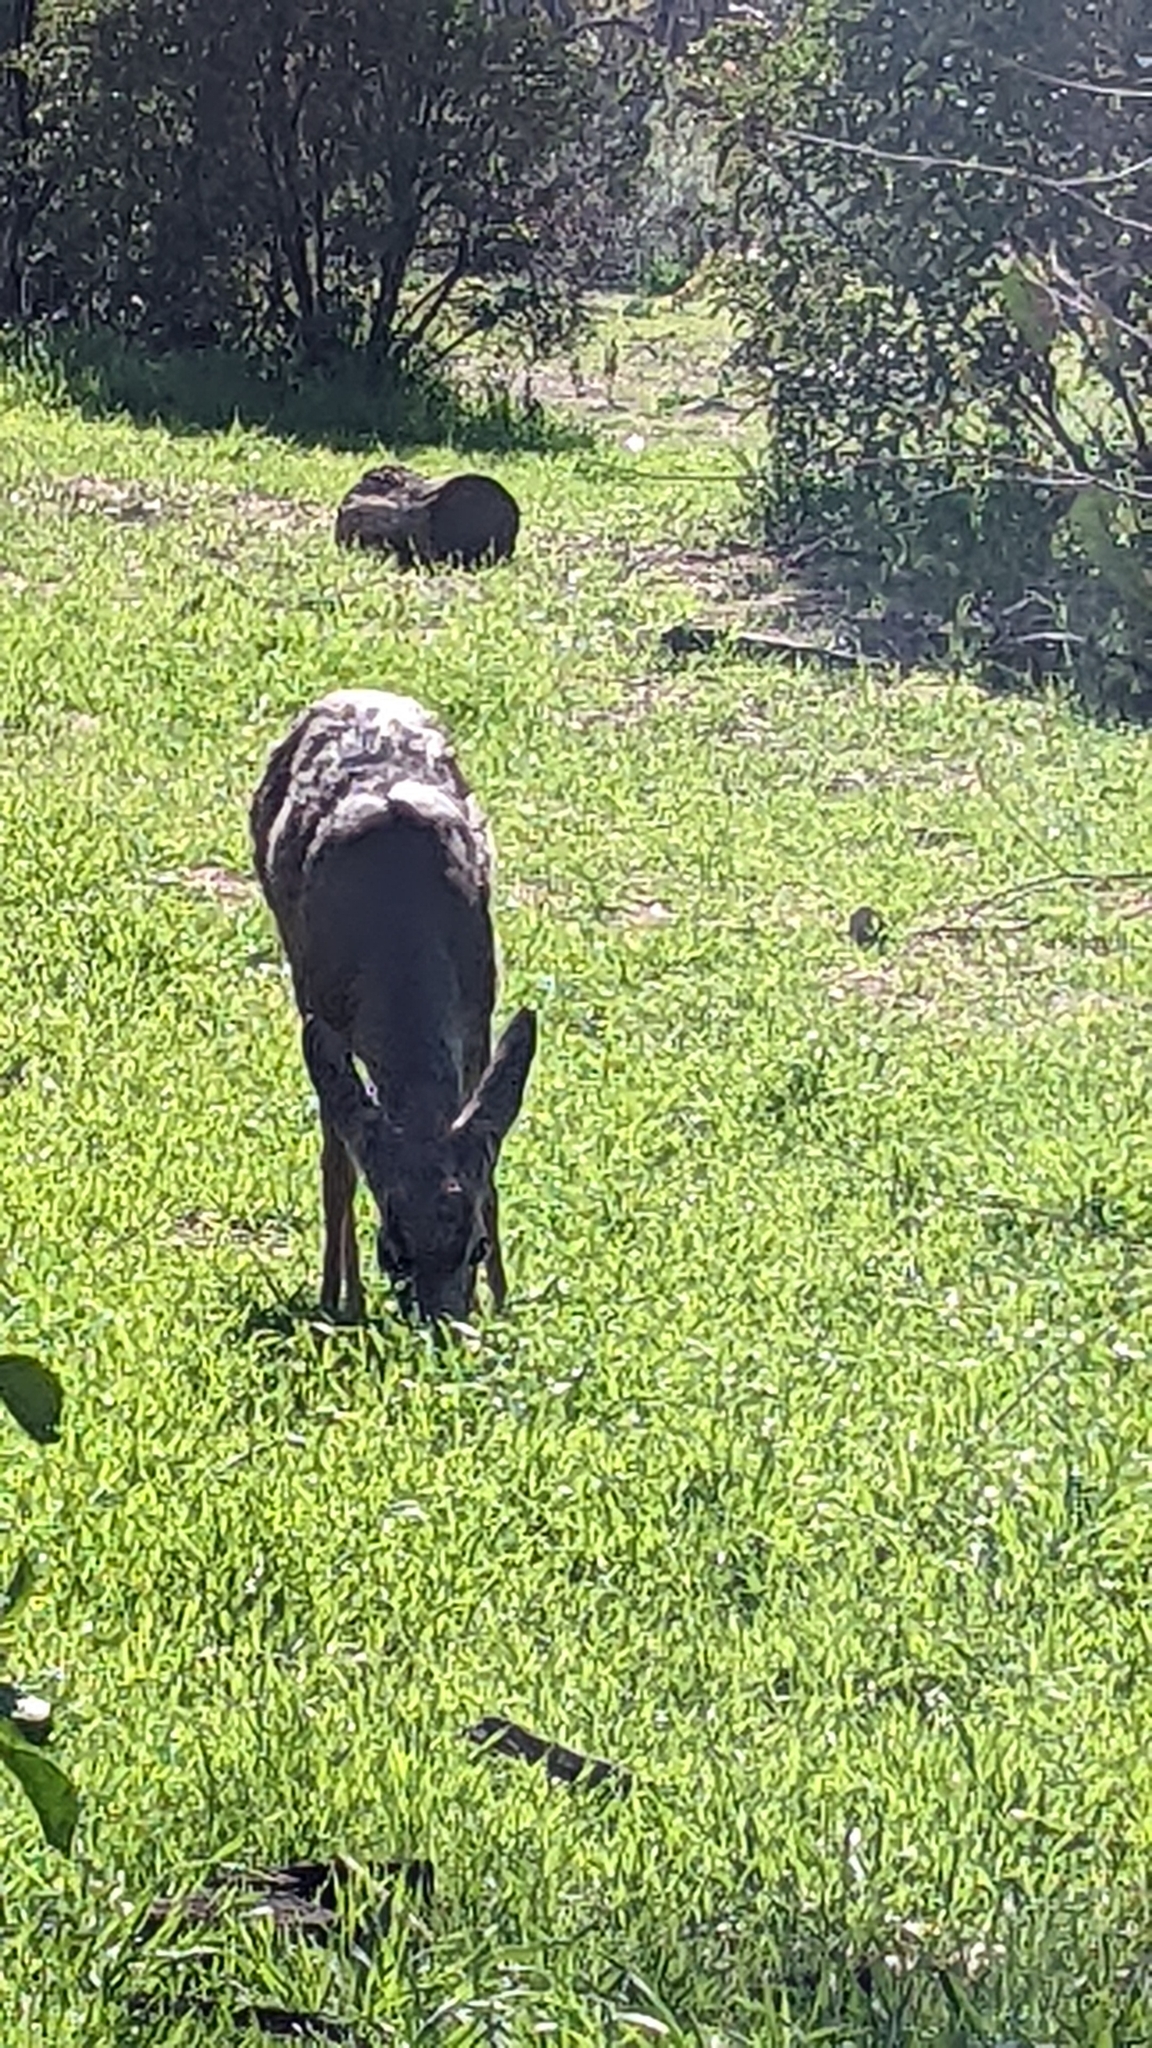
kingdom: Animalia
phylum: Chordata
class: Mammalia
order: Artiodactyla
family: Cervidae
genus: Odocoileus
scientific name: Odocoileus hemionus
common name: Mule deer
